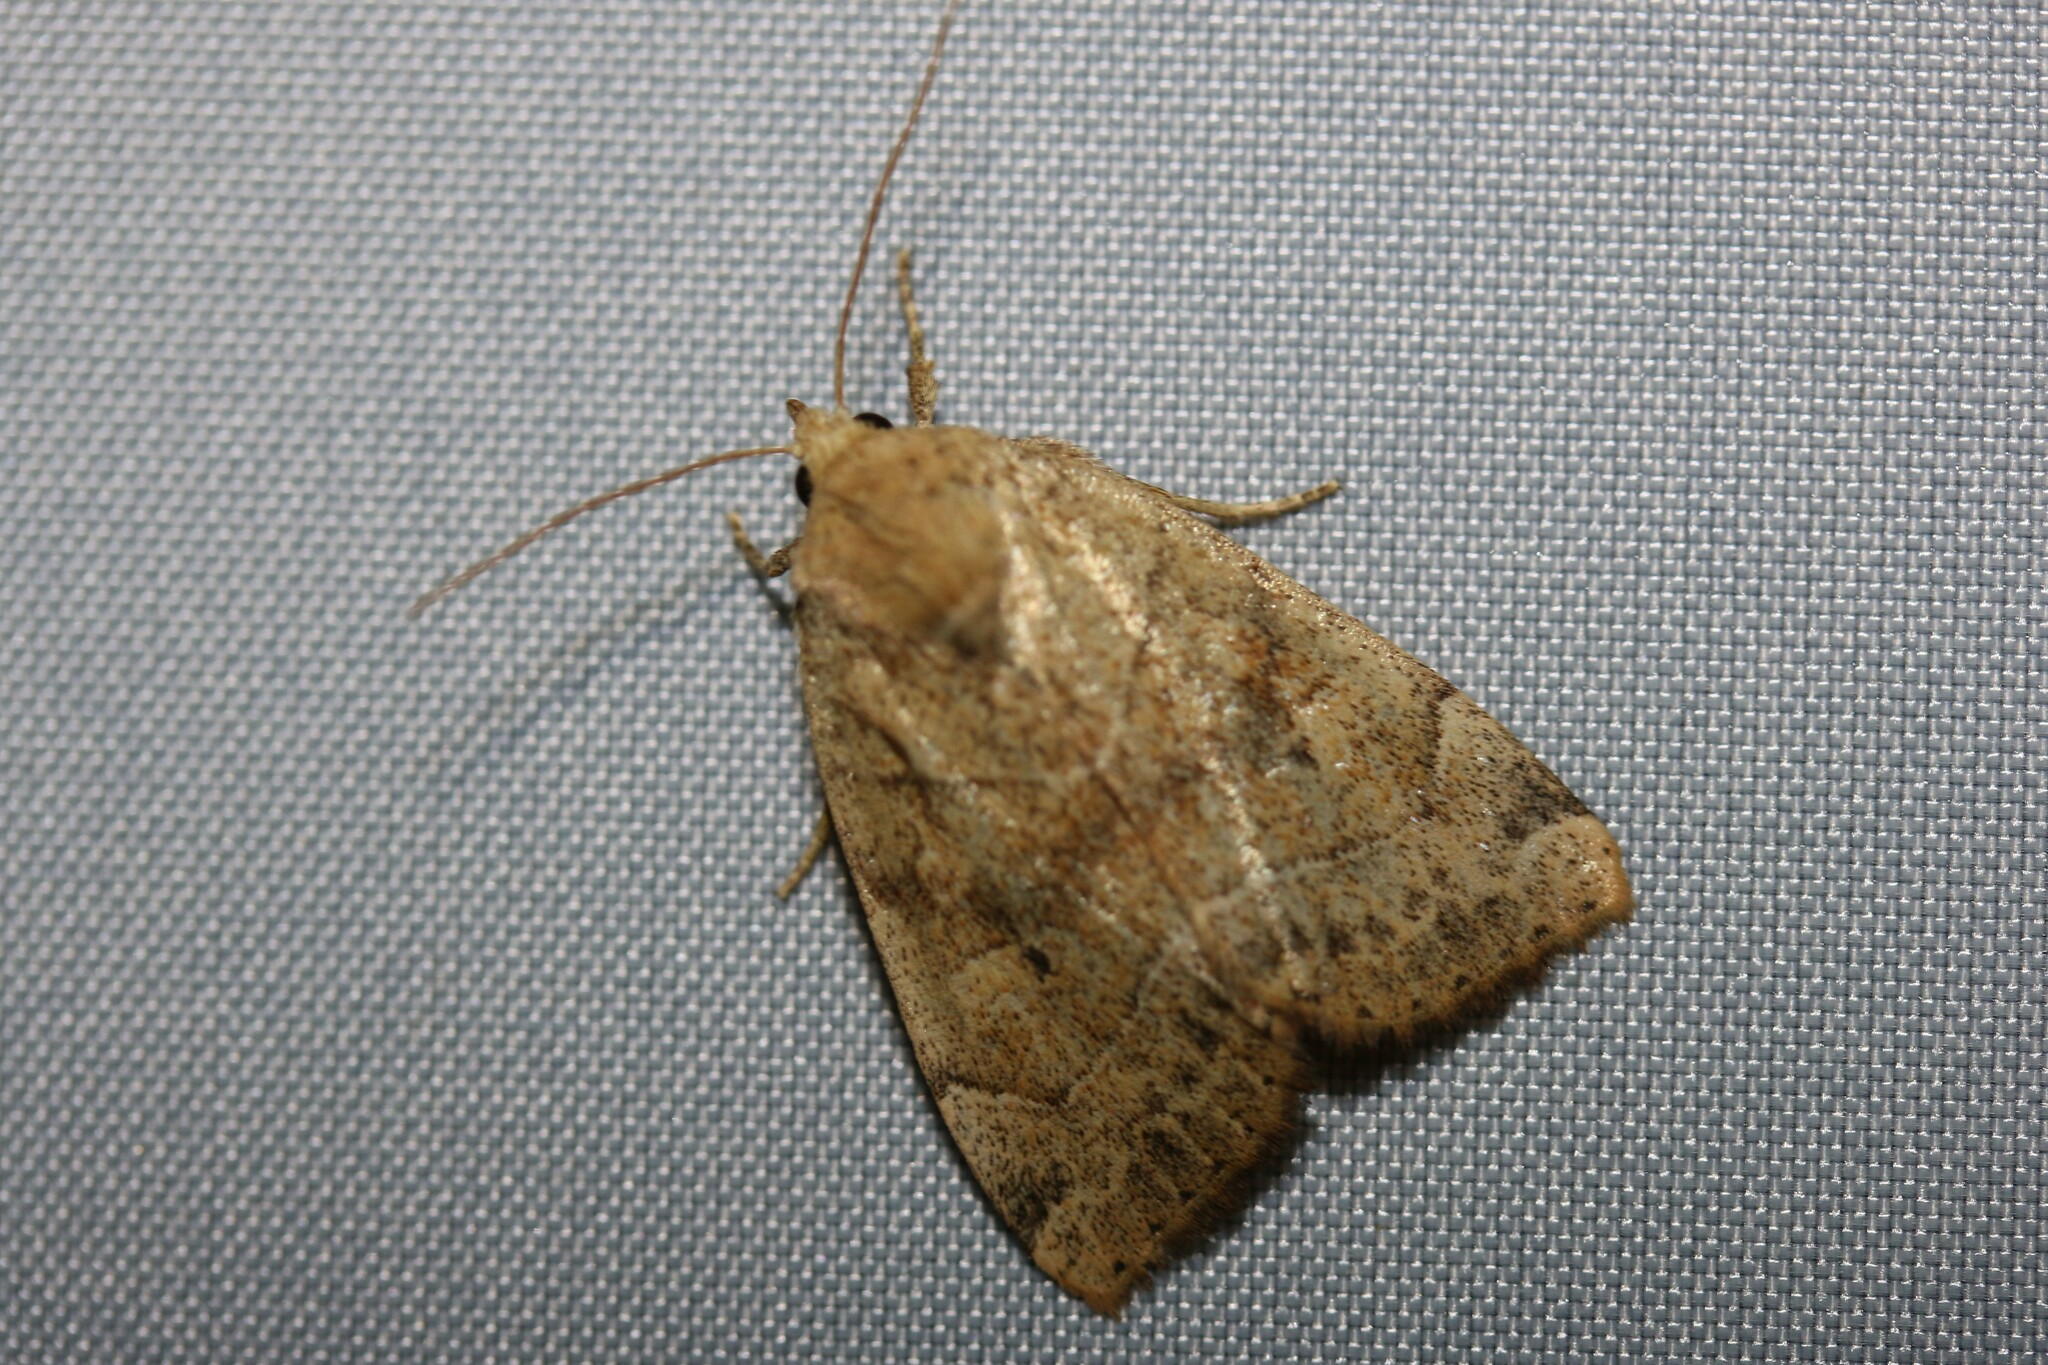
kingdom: Animalia
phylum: Arthropoda
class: Insecta
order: Lepidoptera
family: Noctuidae
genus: Cosmia
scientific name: Cosmia trapezina
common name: Dun-bar
